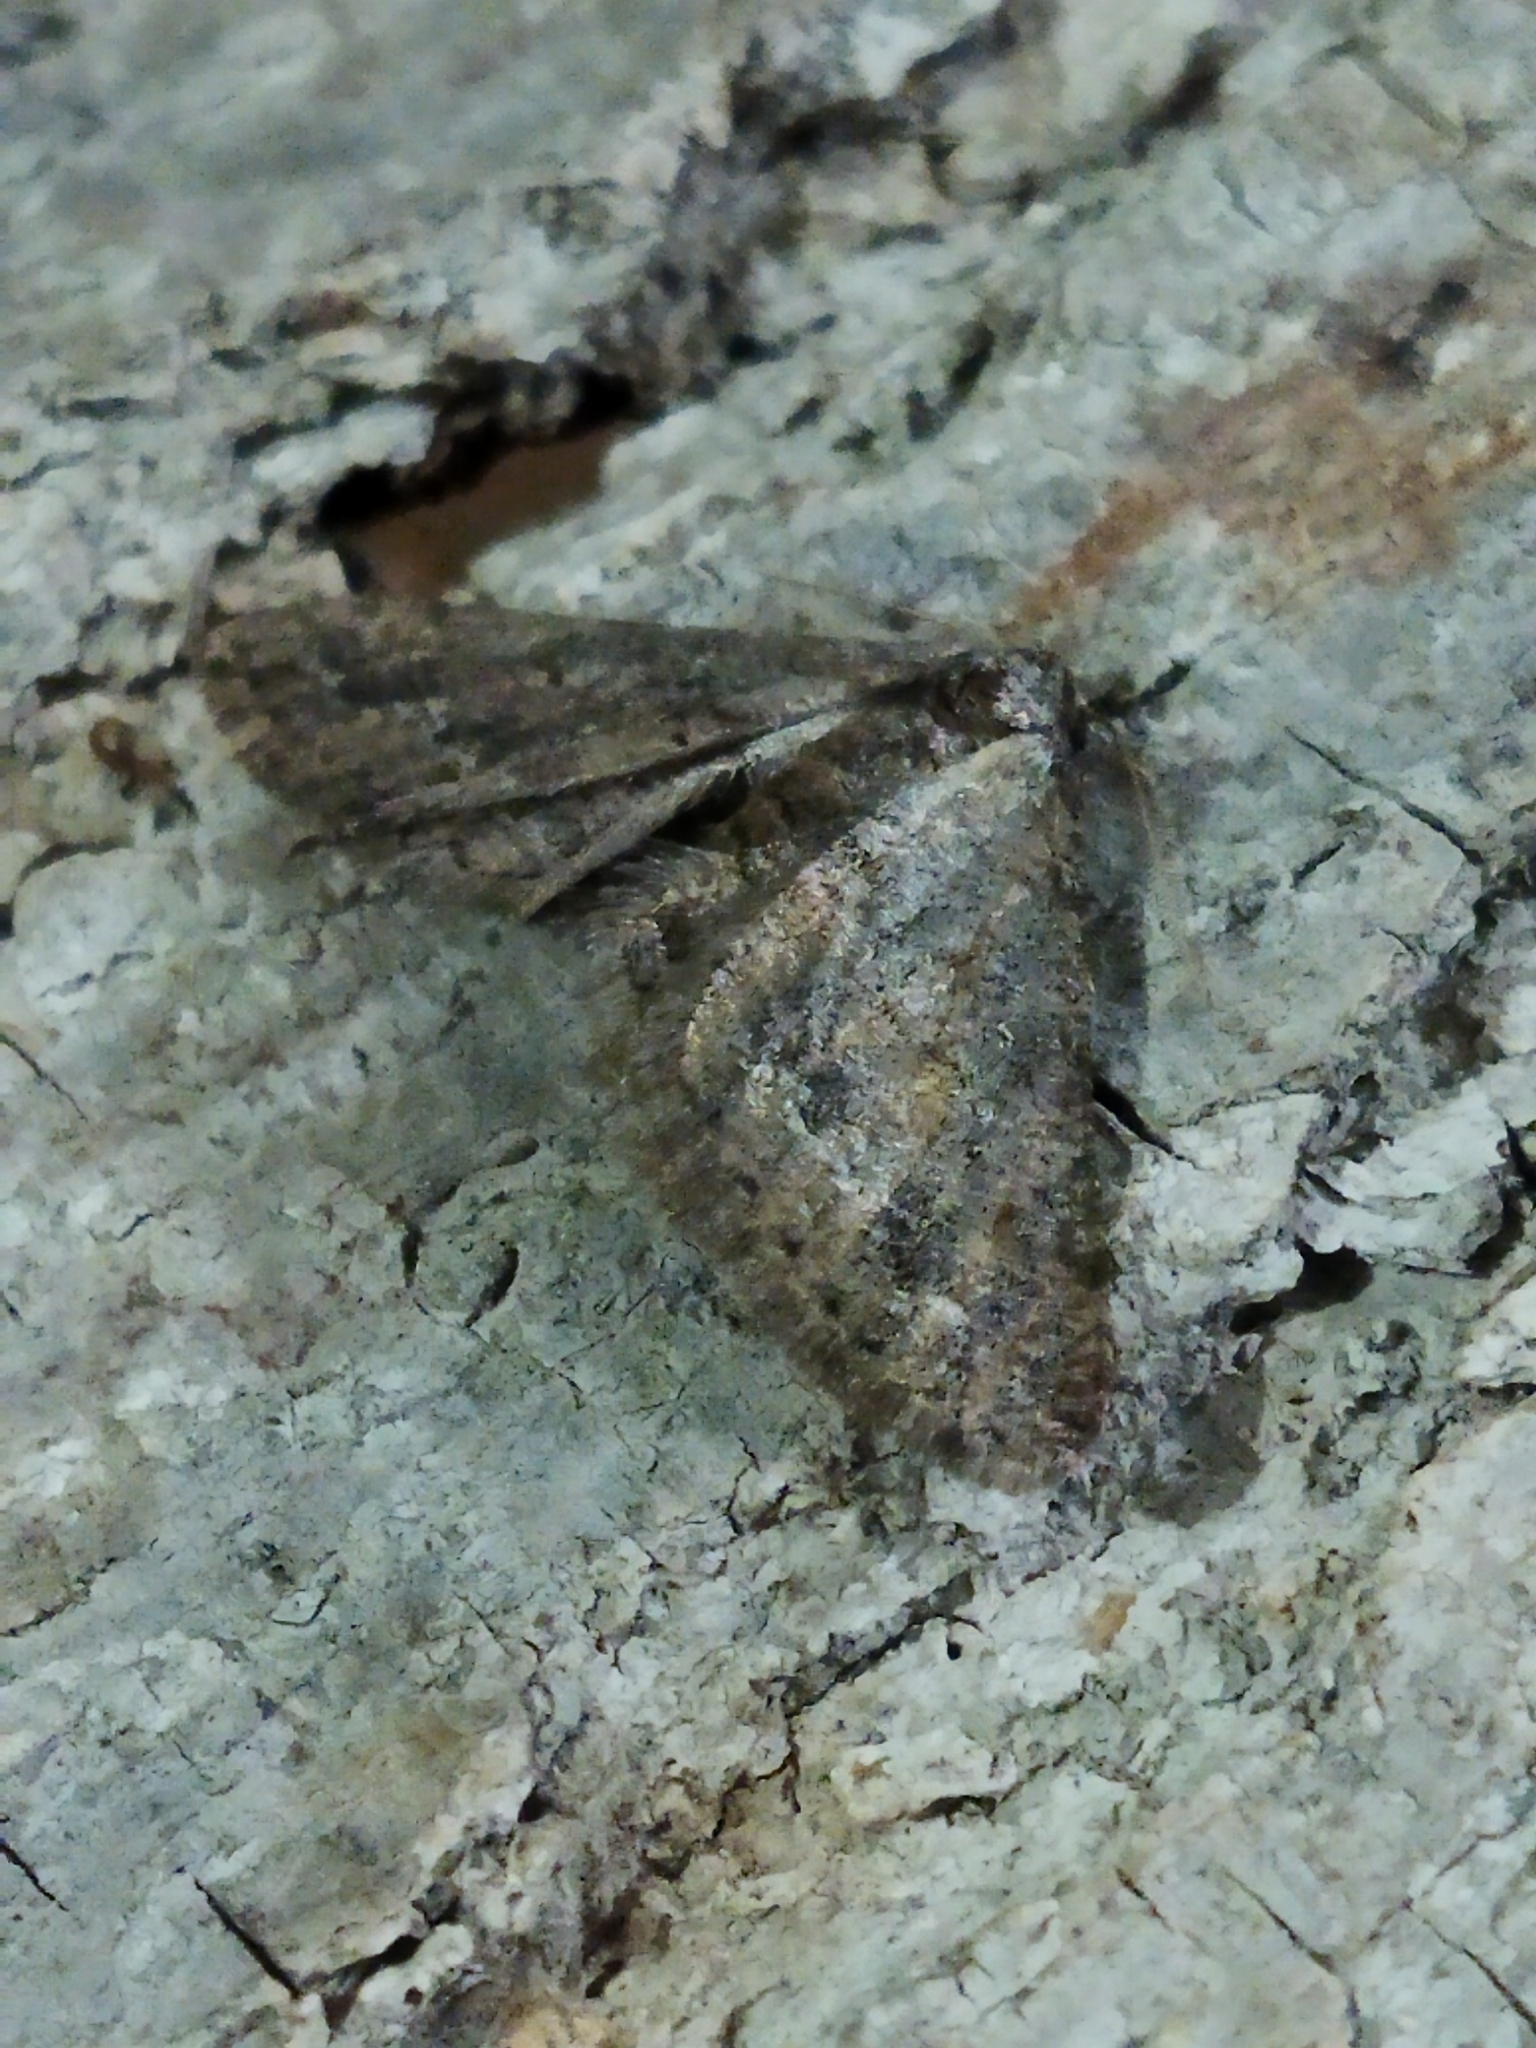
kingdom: Animalia
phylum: Arthropoda
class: Insecta
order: Lepidoptera
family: Geometridae
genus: Agriopis
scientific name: Agriopis bajaria
